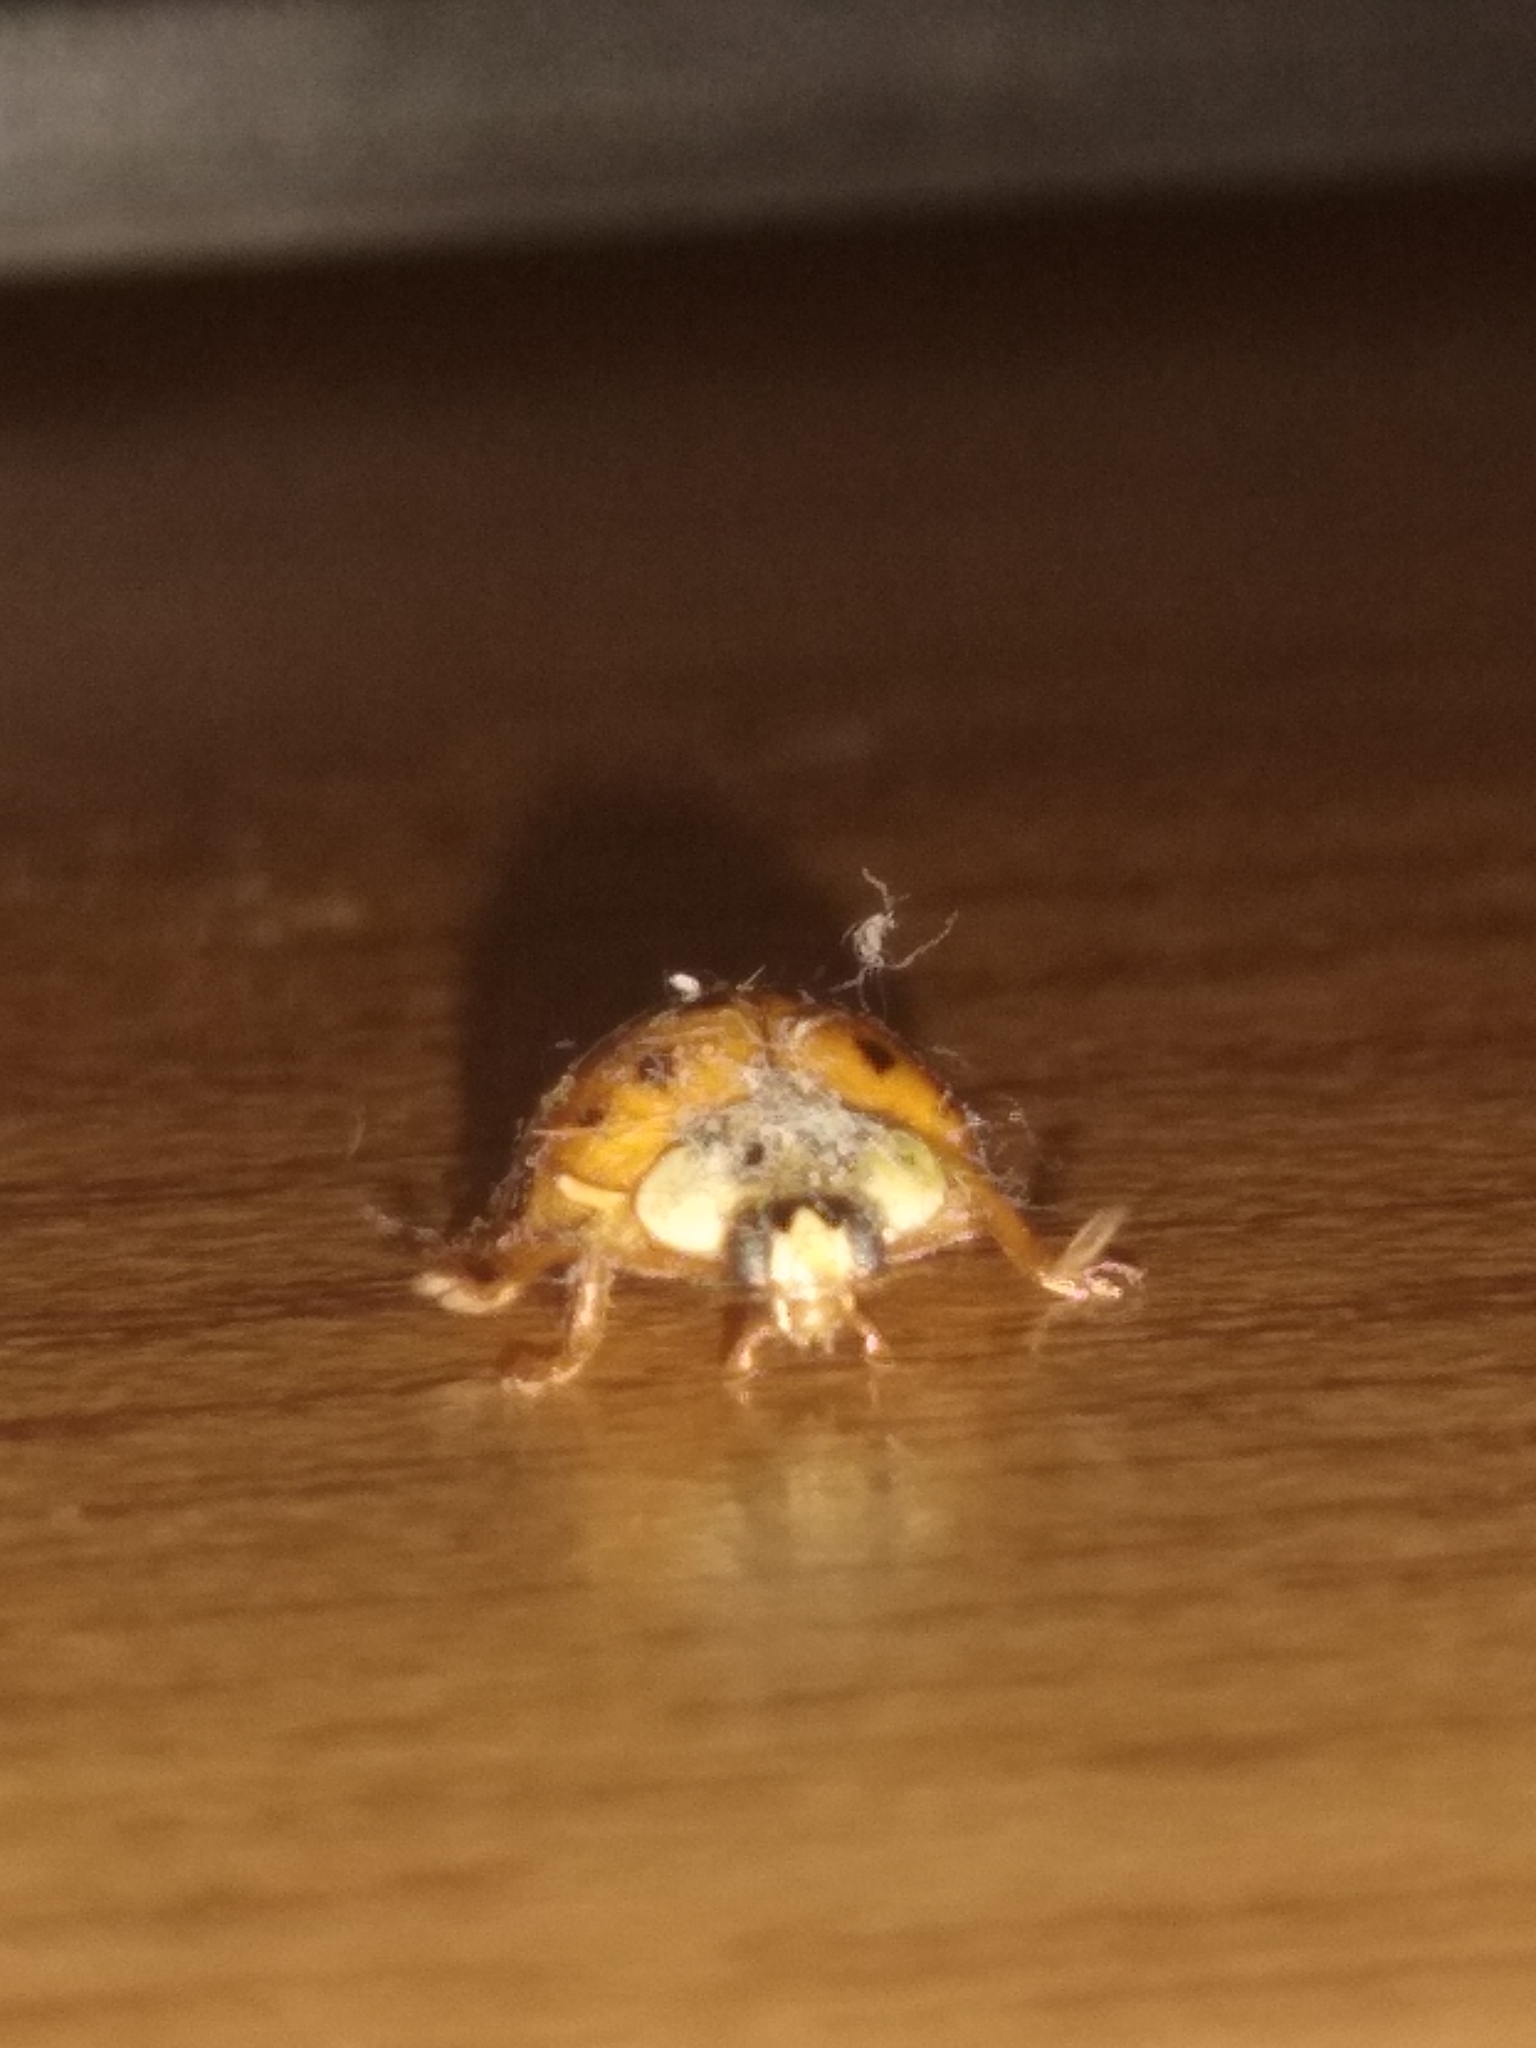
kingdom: Animalia
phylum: Arthropoda
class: Insecta
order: Coleoptera
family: Coccinellidae
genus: Harmonia
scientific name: Harmonia axyridis
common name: Harlequin ladybird
